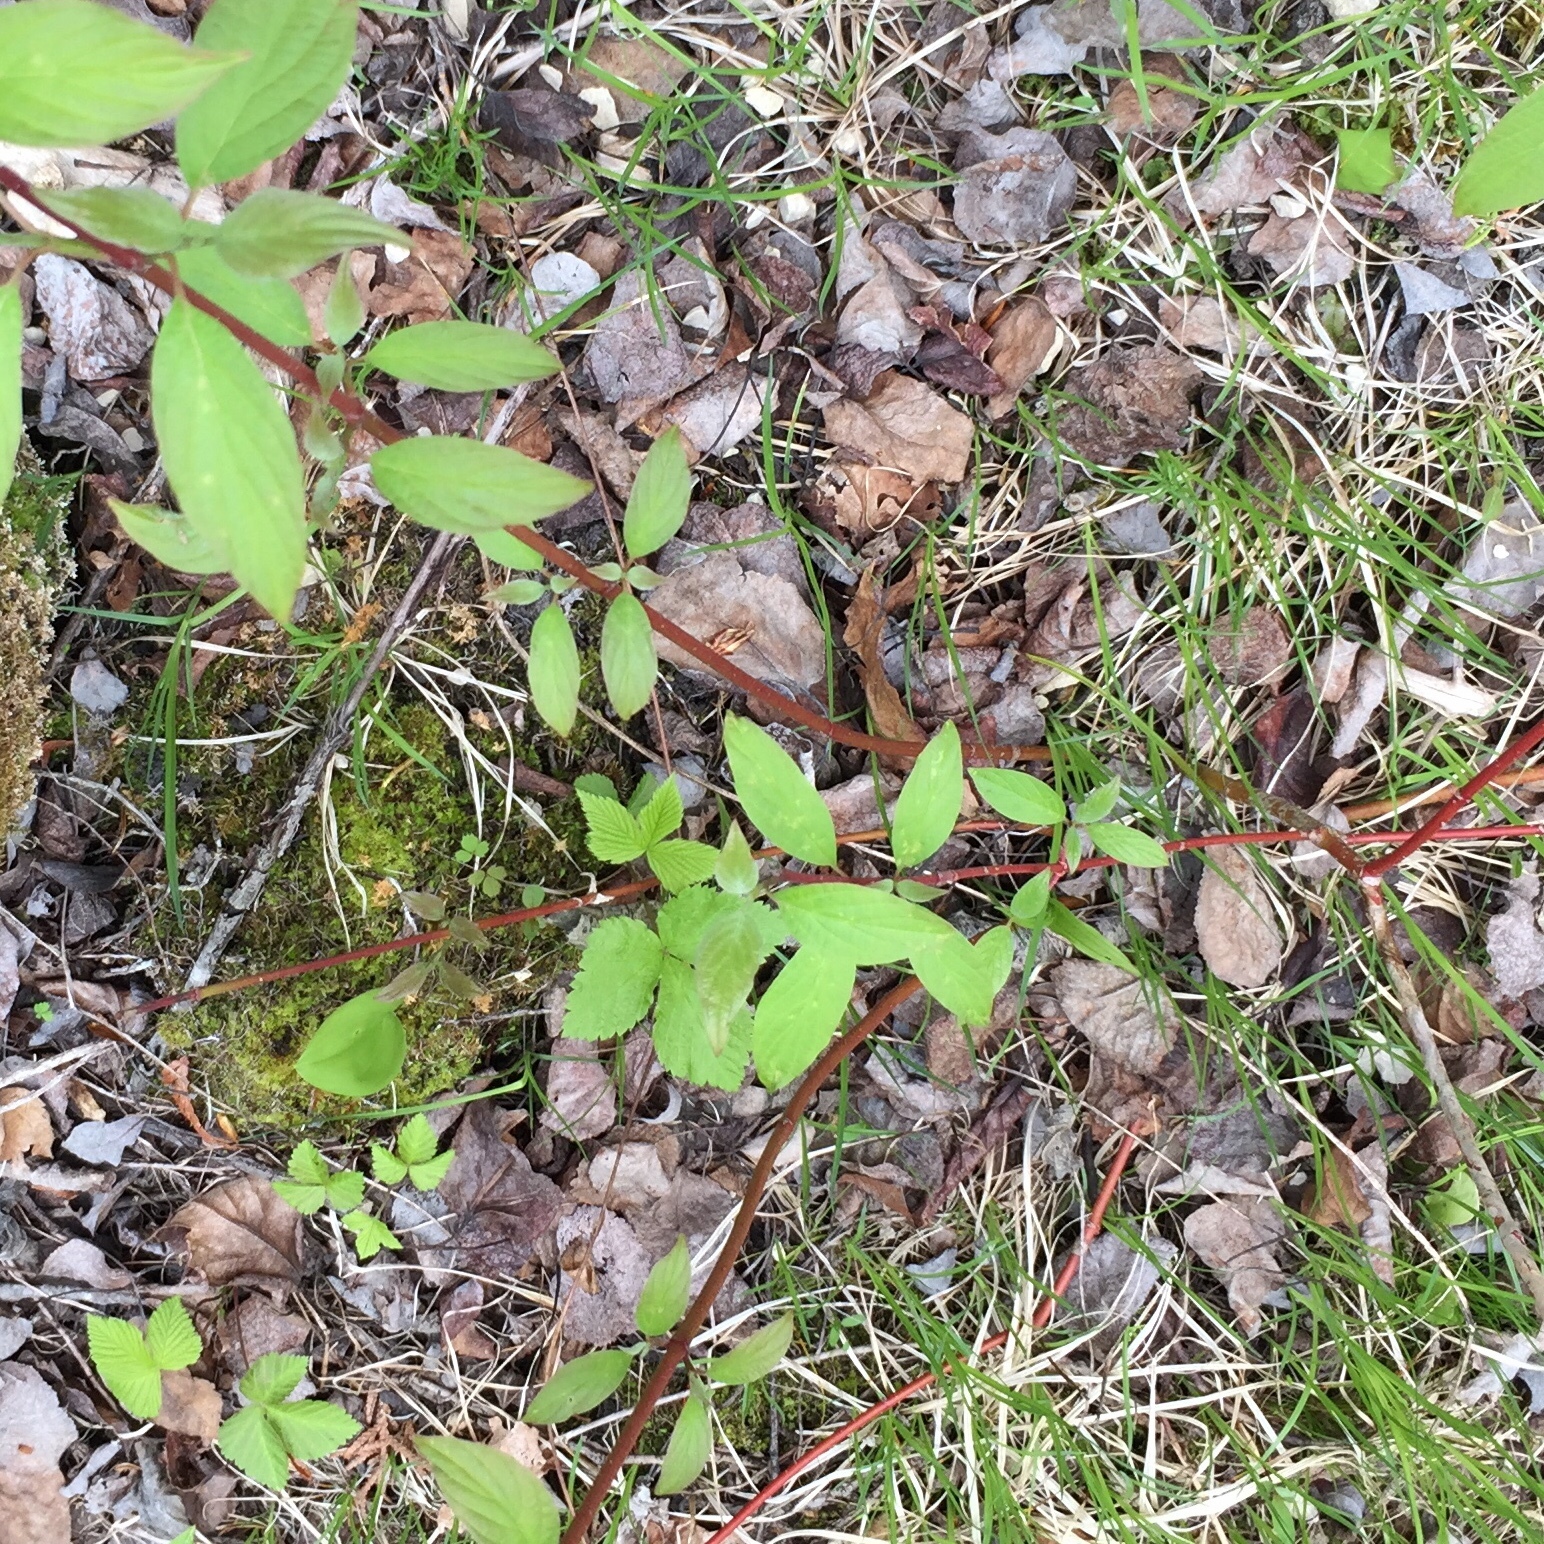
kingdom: Plantae
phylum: Tracheophyta
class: Magnoliopsida
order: Cornales
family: Cornaceae
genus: Cornus
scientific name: Cornus sericea
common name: Red-osier dogwood
